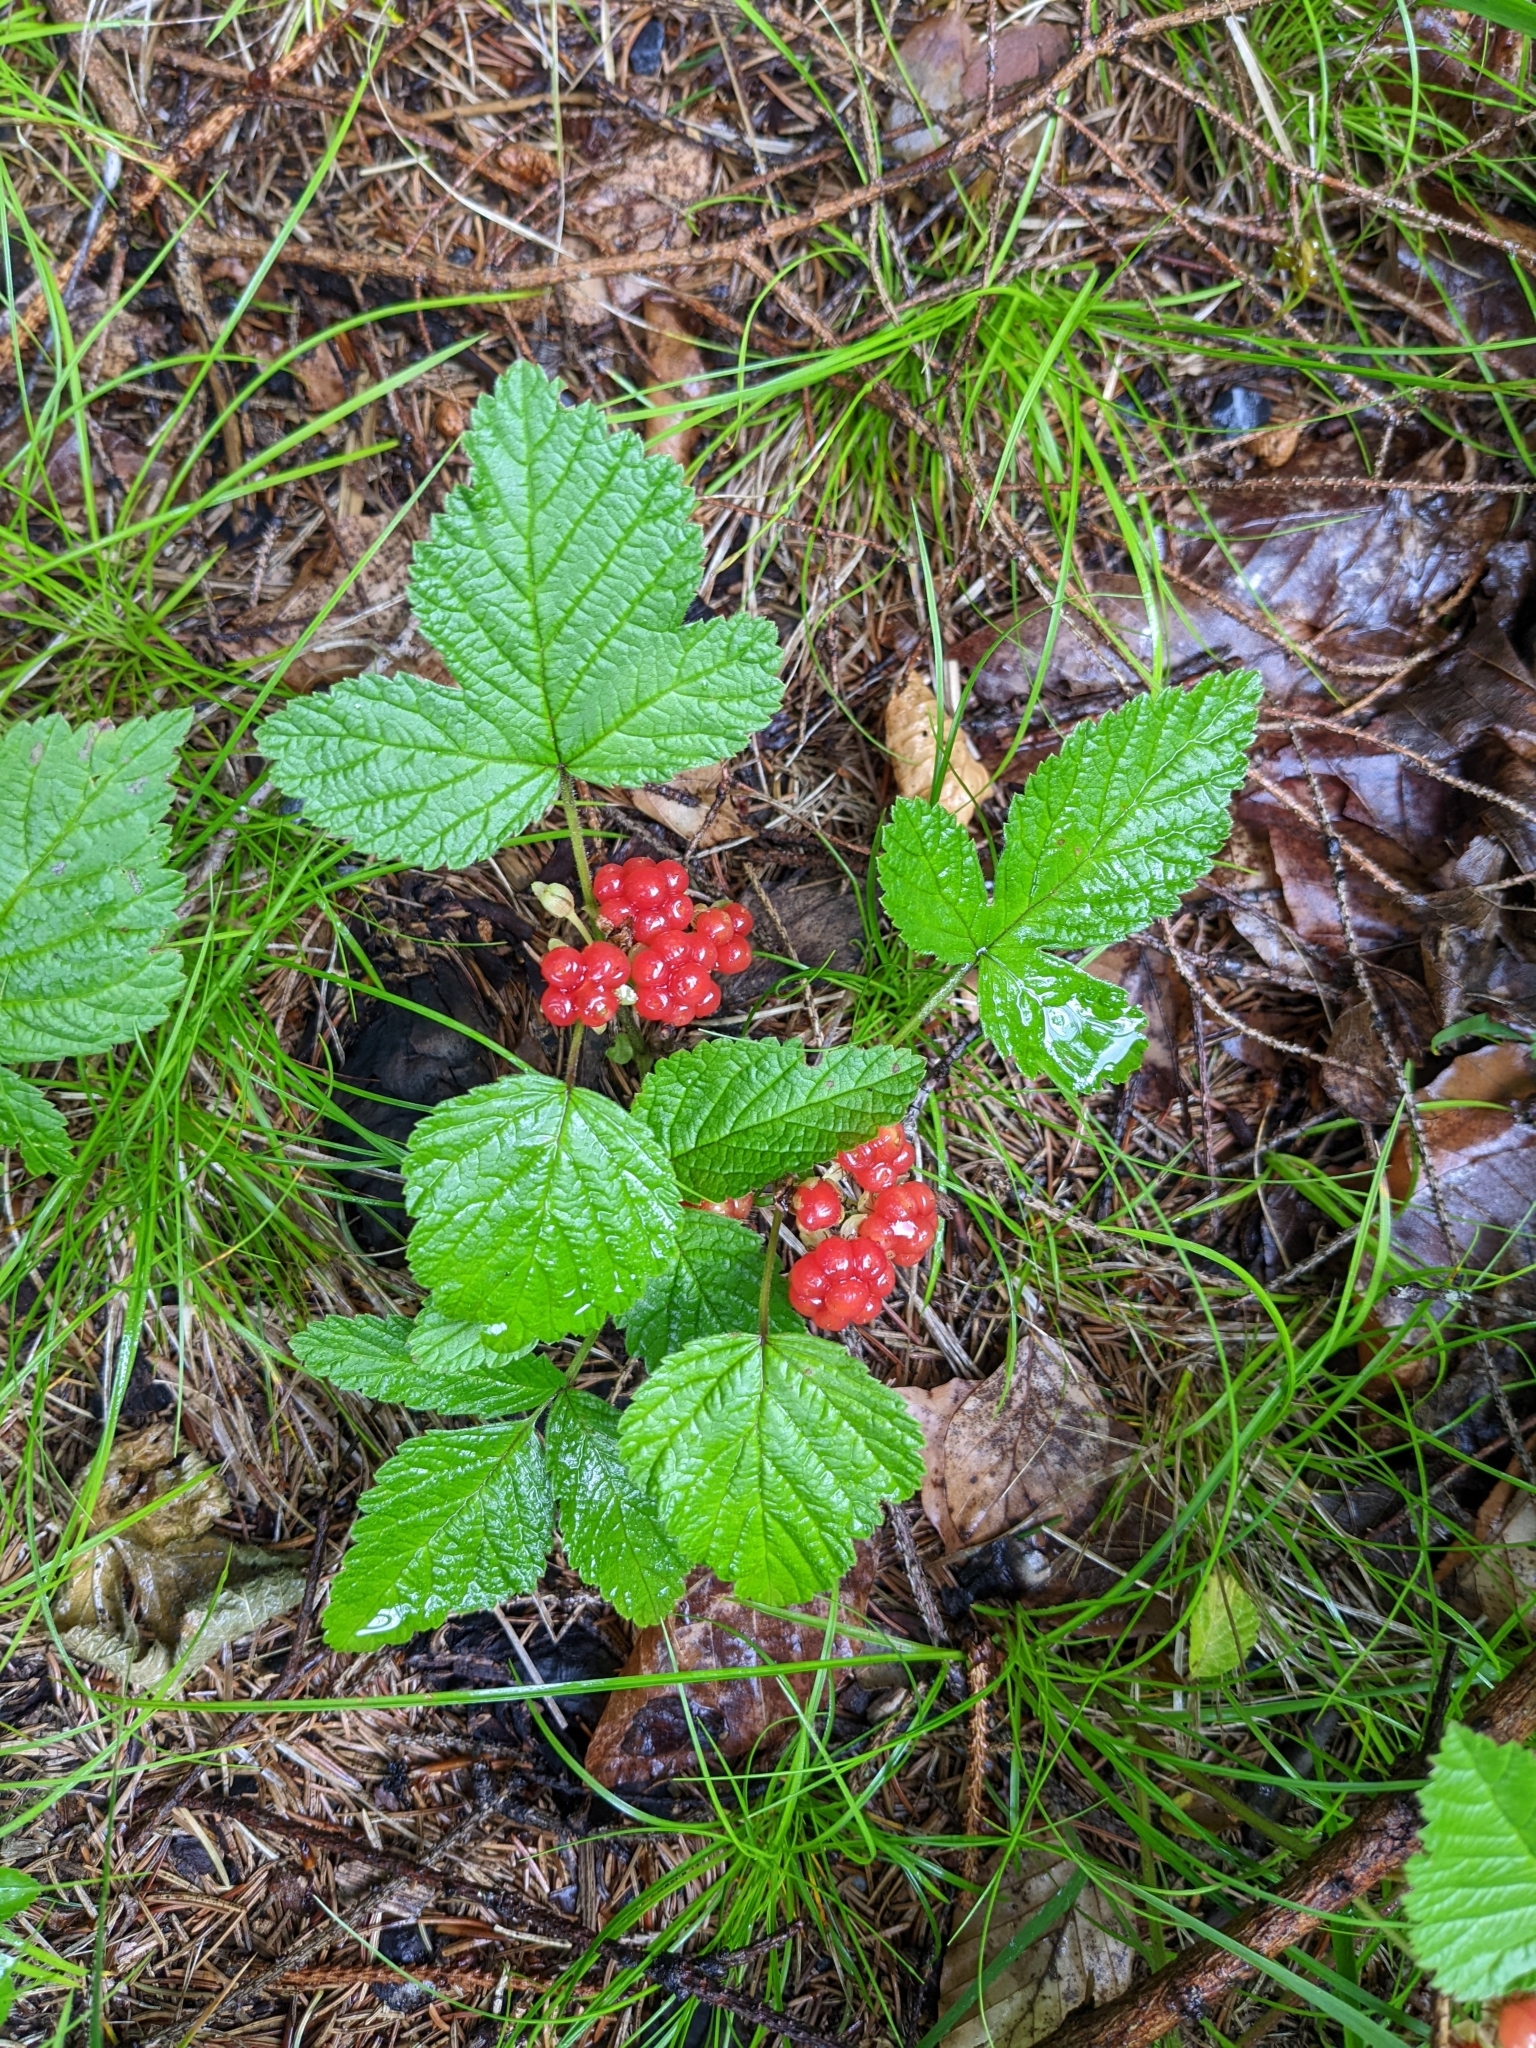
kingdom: Plantae
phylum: Tracheophyta
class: Magnoliopsida
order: Rosales
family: Rosaceae
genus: Rubus
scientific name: Rubus saxatilis
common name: Stone bramble
